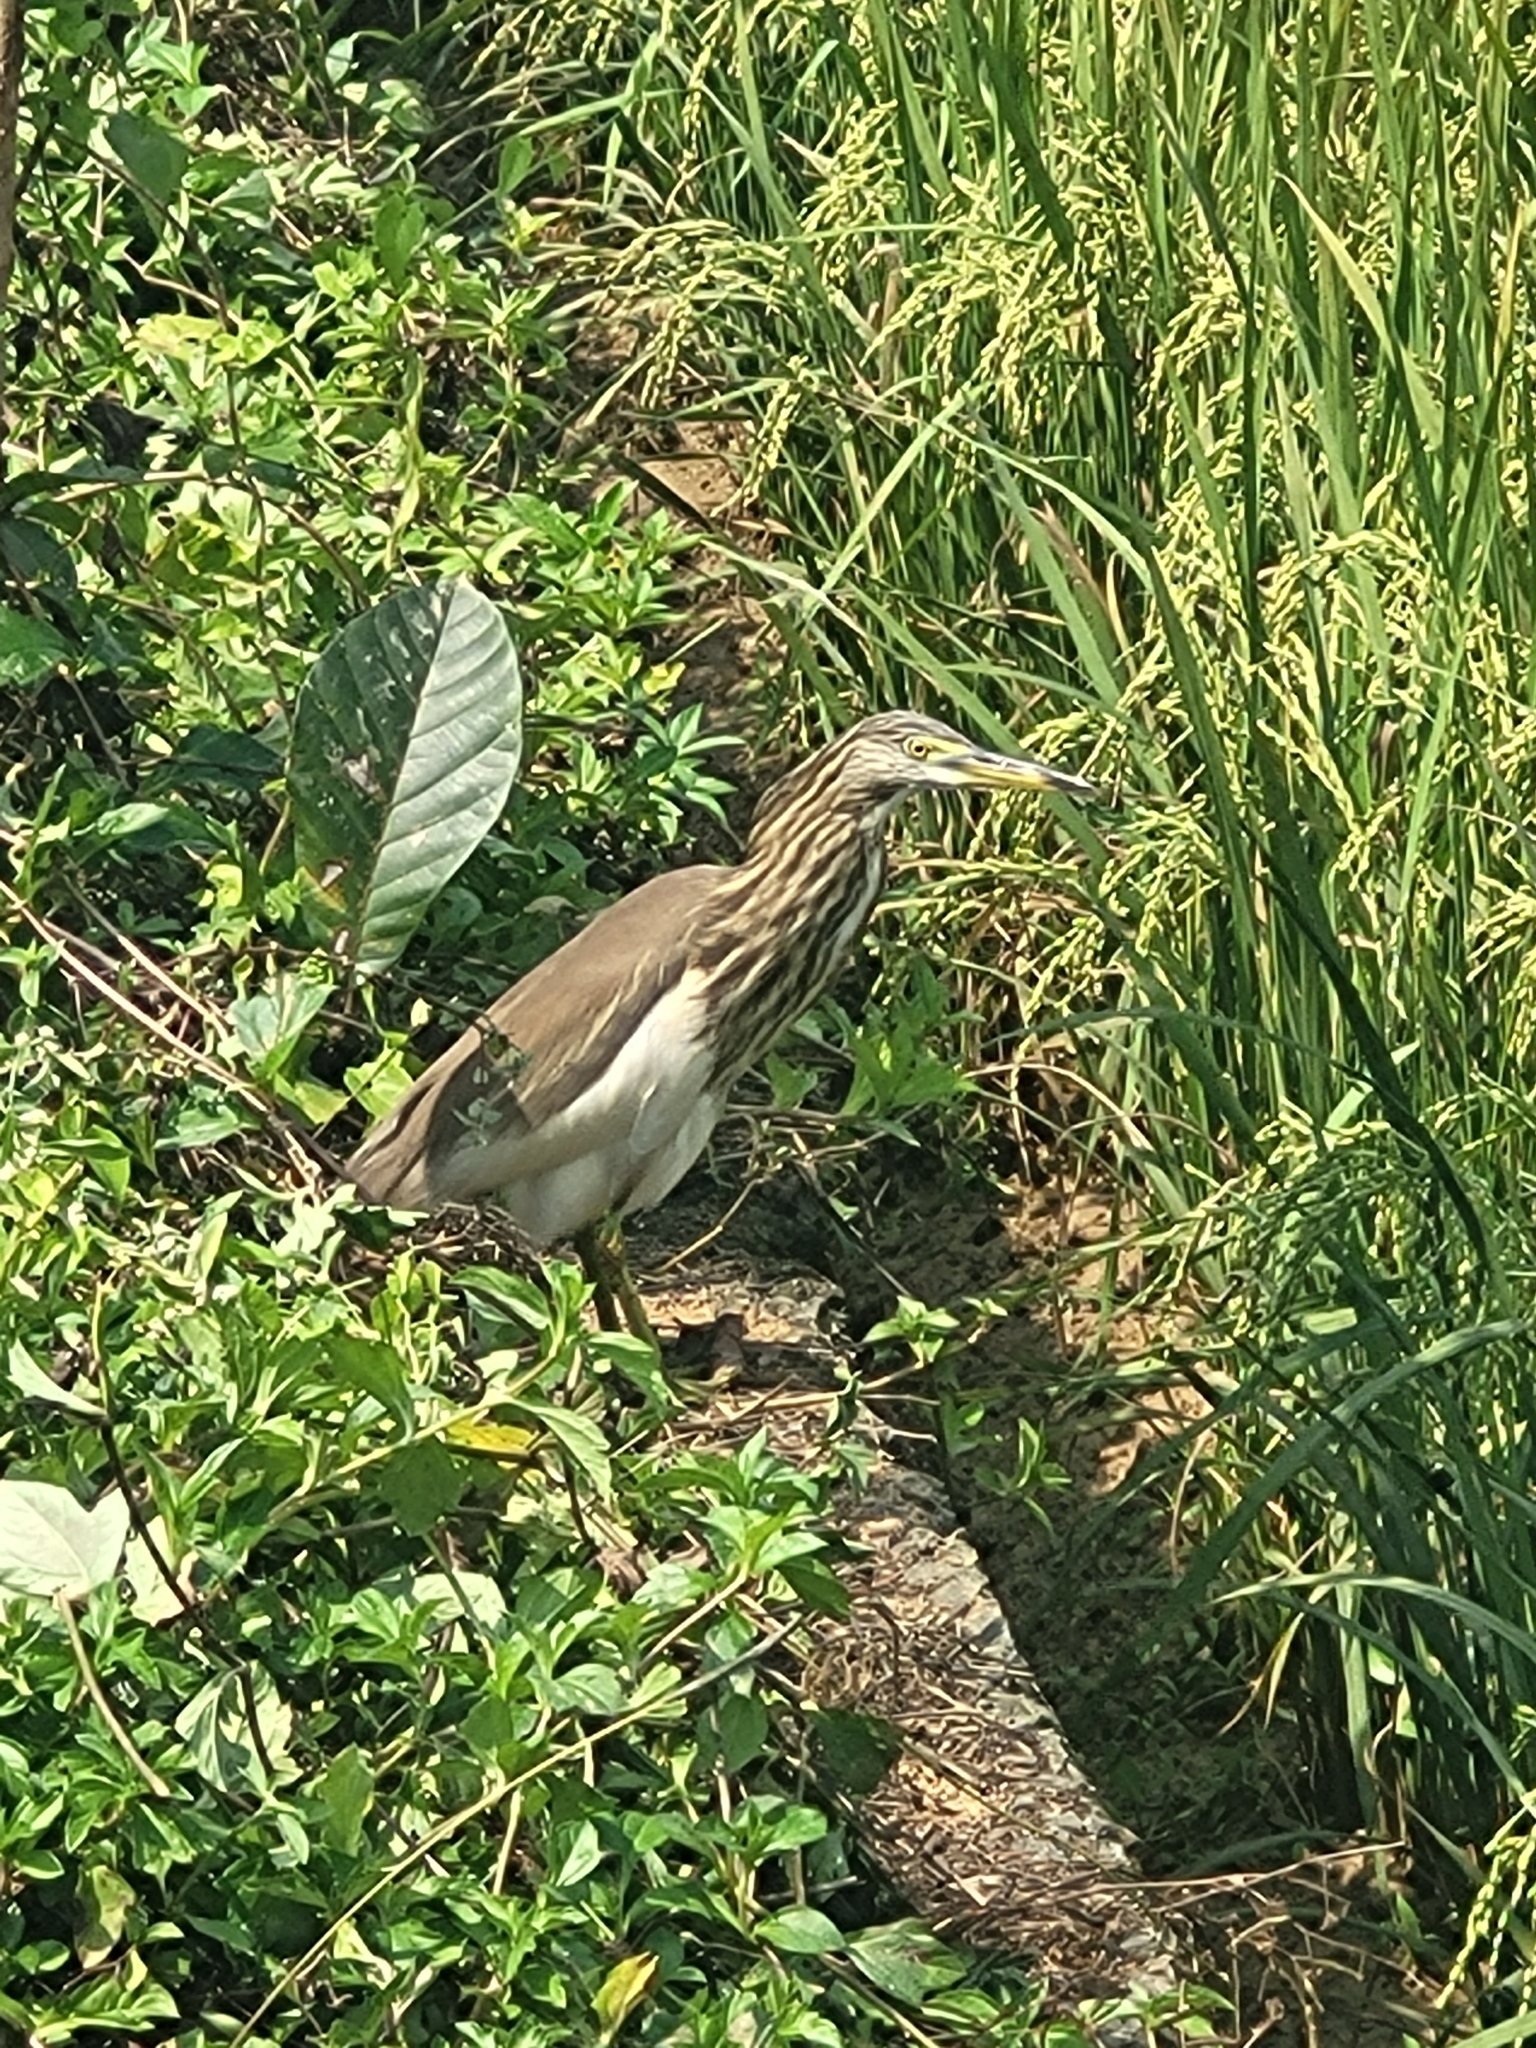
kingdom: Animalia
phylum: Chordata
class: Aves
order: Pelecaniformes
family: Ardeidae
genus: Ardeola
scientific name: Ardeola grayii
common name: Indian pond heron
